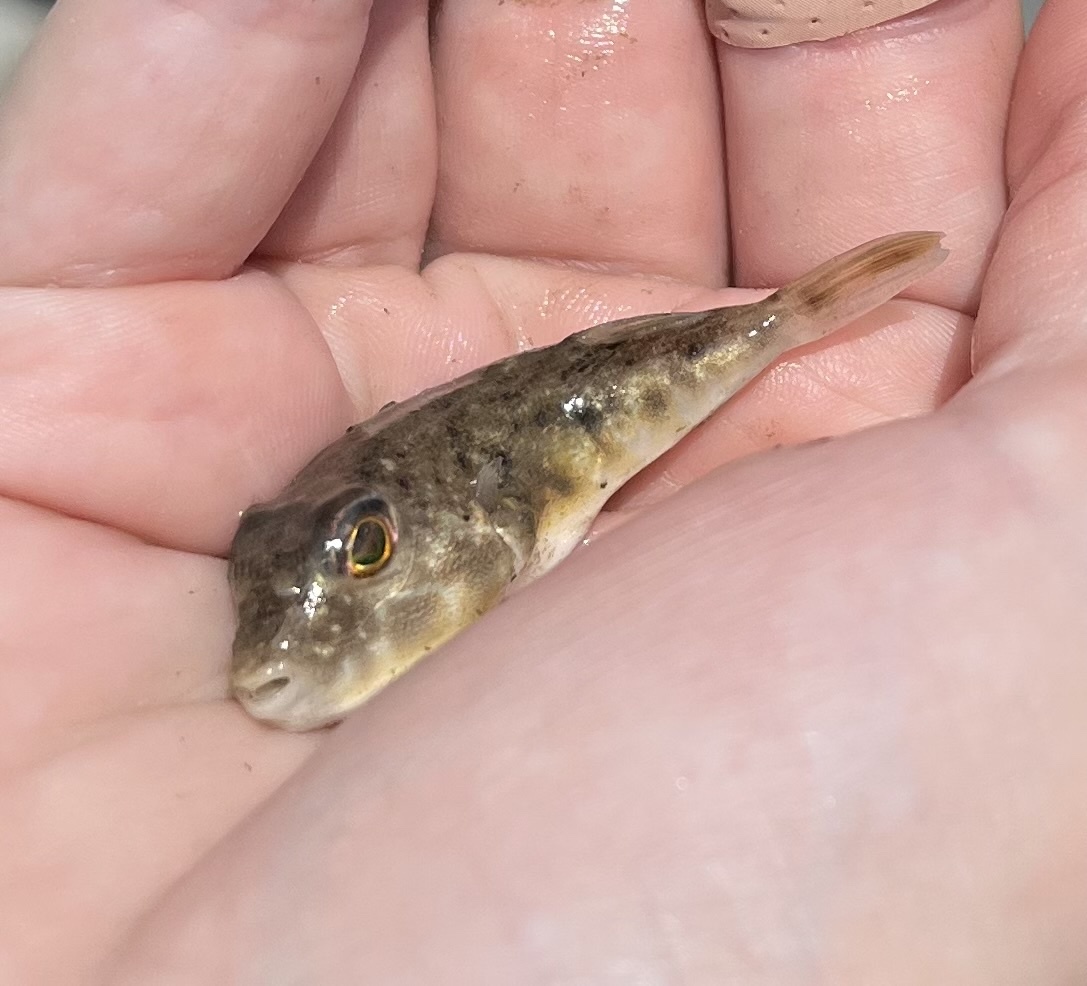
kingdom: Animalia
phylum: Chordata
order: Tetraodontiformes
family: Tetraodontidae
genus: Sphoeroides
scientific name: Sphoeroides parvus
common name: Least puffer
